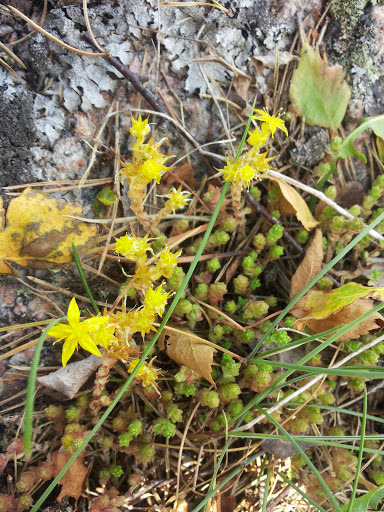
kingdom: Plantae
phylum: Tracheophyta
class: Magnoliopsida
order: Saxifragales
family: Crassulaceae
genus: Sedum
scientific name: Sedum acre
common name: Biting stonecrop
